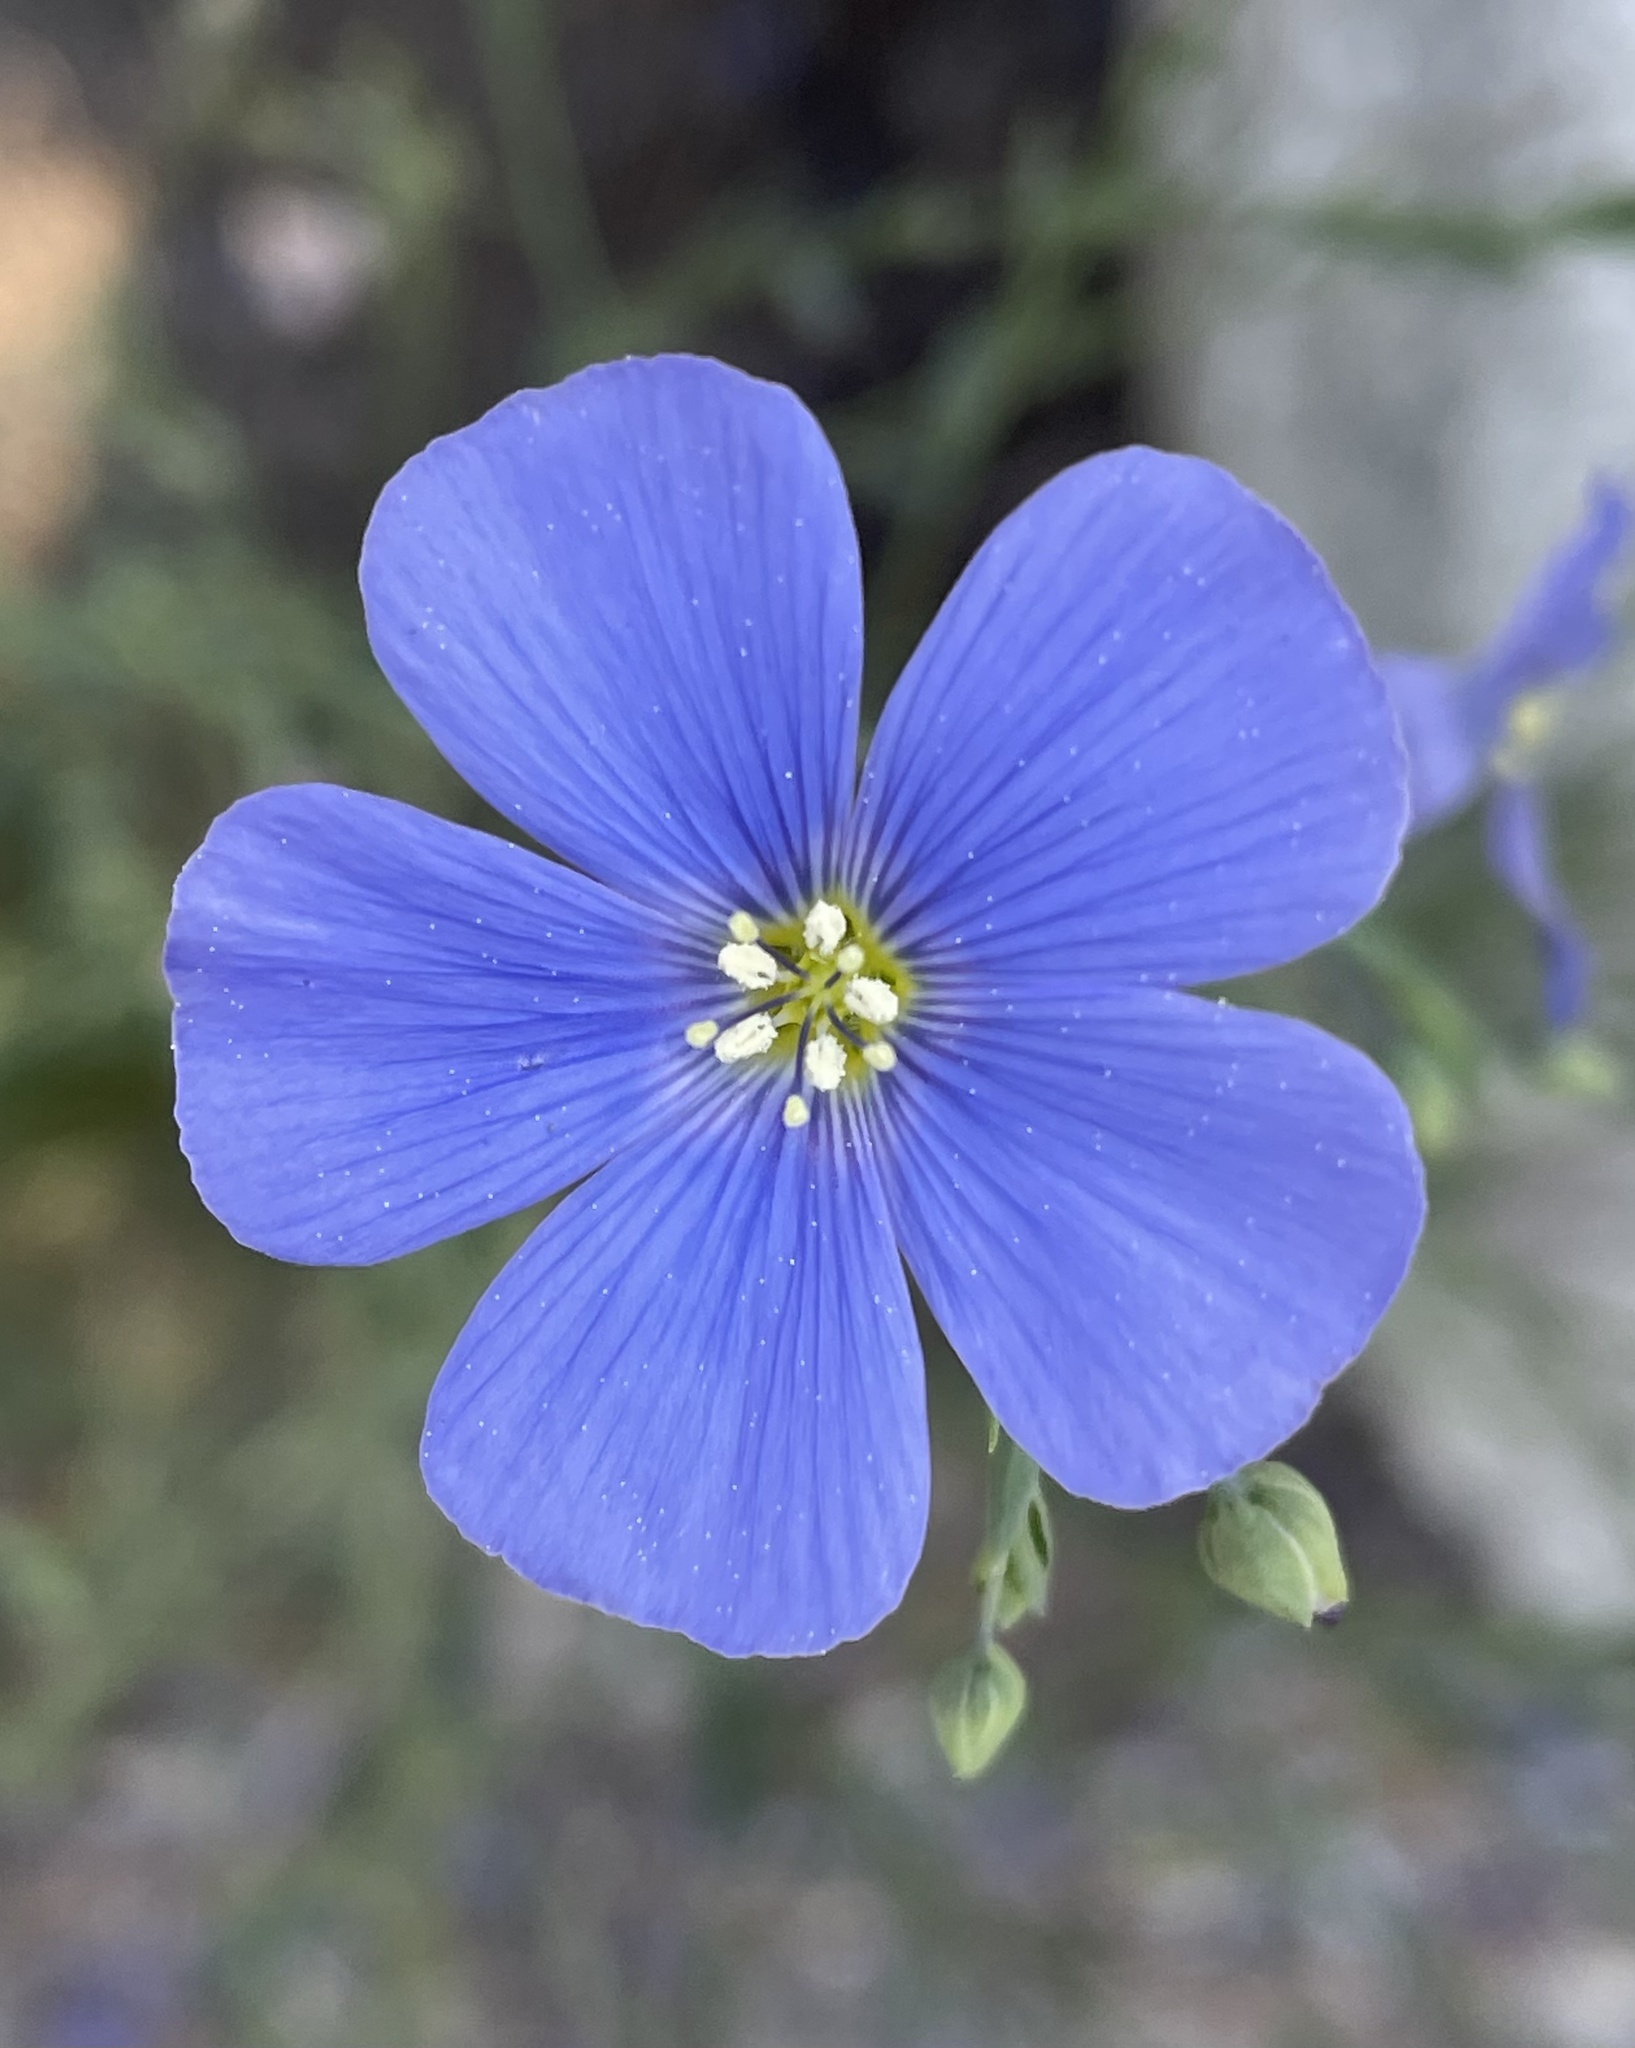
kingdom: Plantae
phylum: Tracheophyta
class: Magnoliopsida
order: Malpighiales
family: Linaceae
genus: Linum
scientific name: Linum lewisii
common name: Prairie flax
